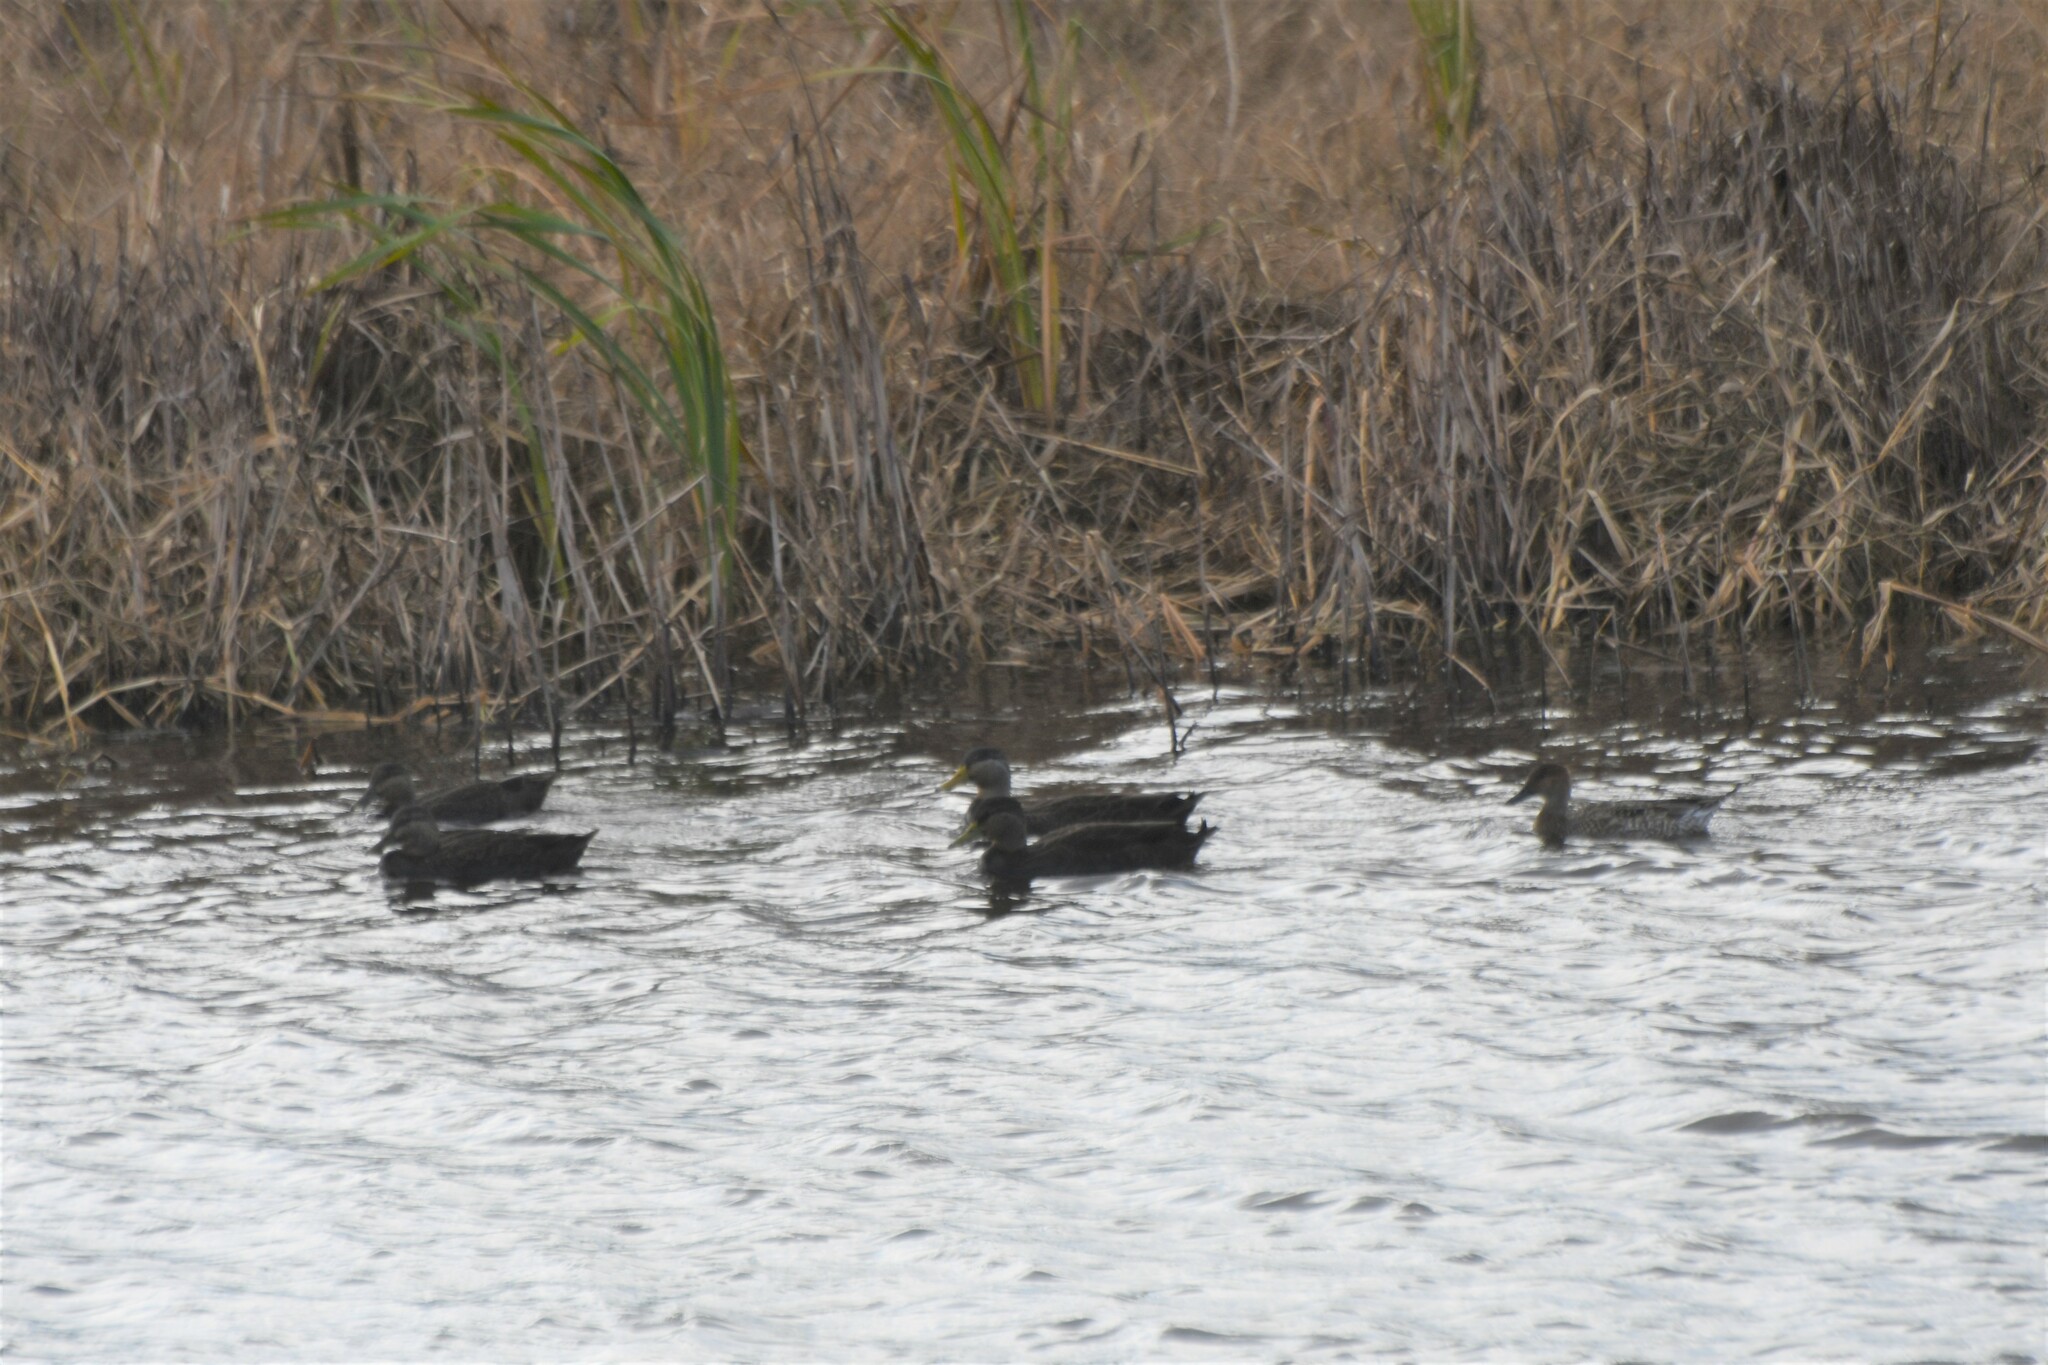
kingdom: Animalia
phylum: Chordata
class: Aves
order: Anseriformes
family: Anatidae
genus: Anas
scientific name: Anas rubripes
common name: American black duck
